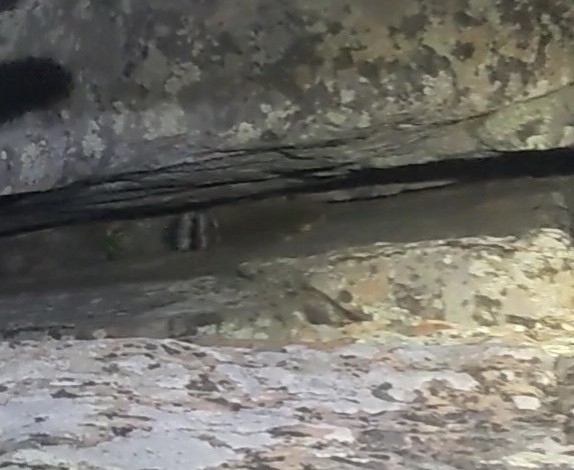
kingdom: Animalia
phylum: Chordata
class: Mammalia
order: Carnivora
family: Procyonidae
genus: Bassariscus
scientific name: Bassariscus astutus
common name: Ringtail
